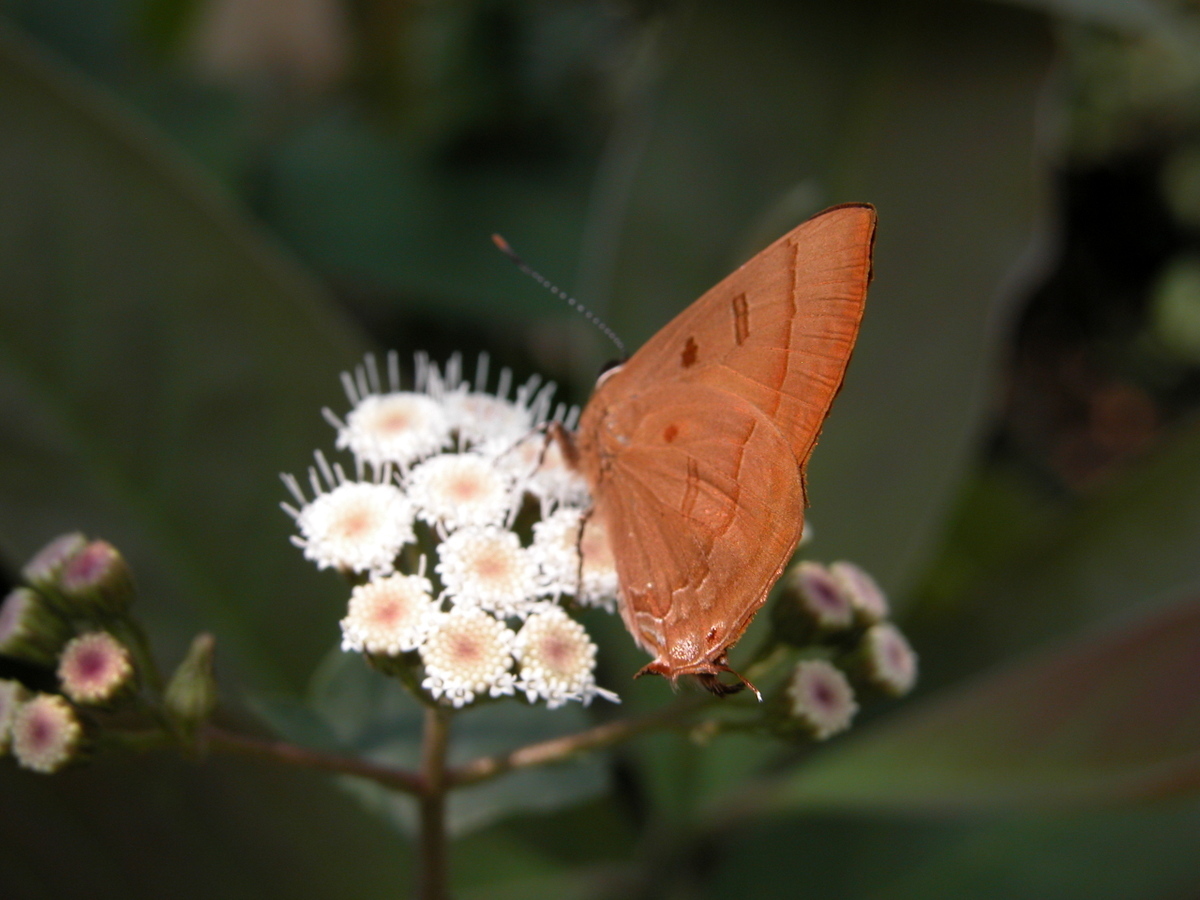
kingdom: Animalia
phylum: Arthropoda
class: Insecta
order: Lepidoptera
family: Lycaenidae
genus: Rapala
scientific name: Rapala pheretima
